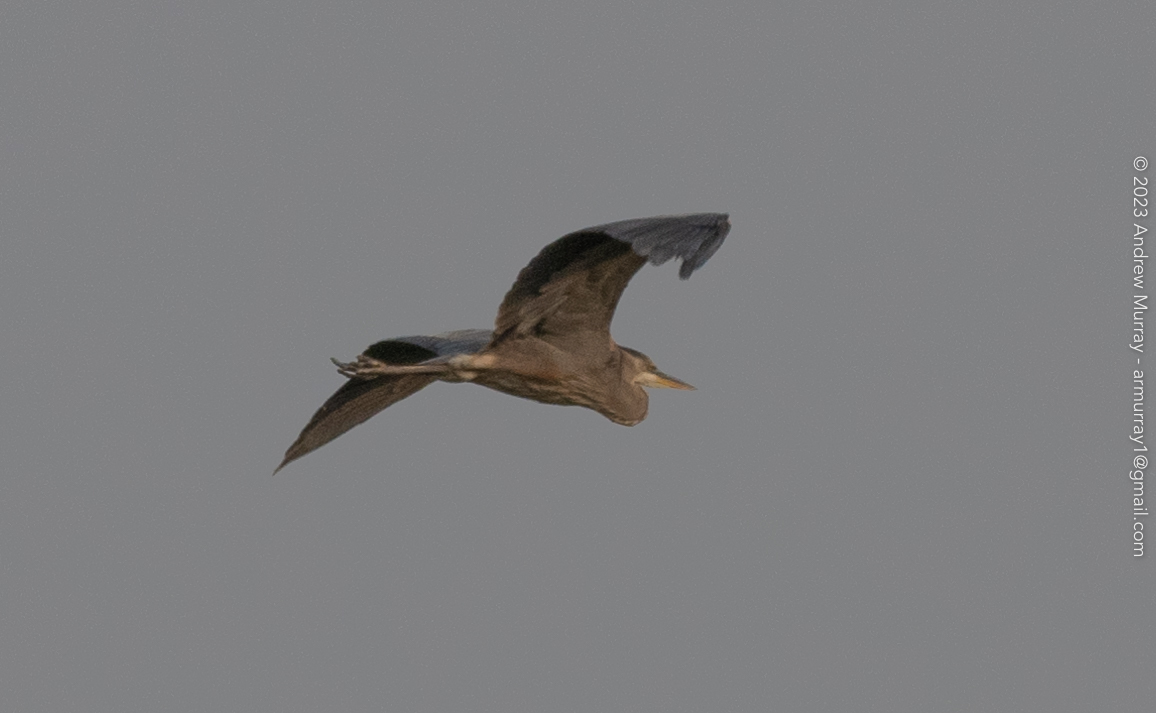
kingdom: Animalia
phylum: Chordata
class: Aves
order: Pelecaniformes
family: Ardeidae
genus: Ardea
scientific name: Ardea herodias
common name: Great blue heron
